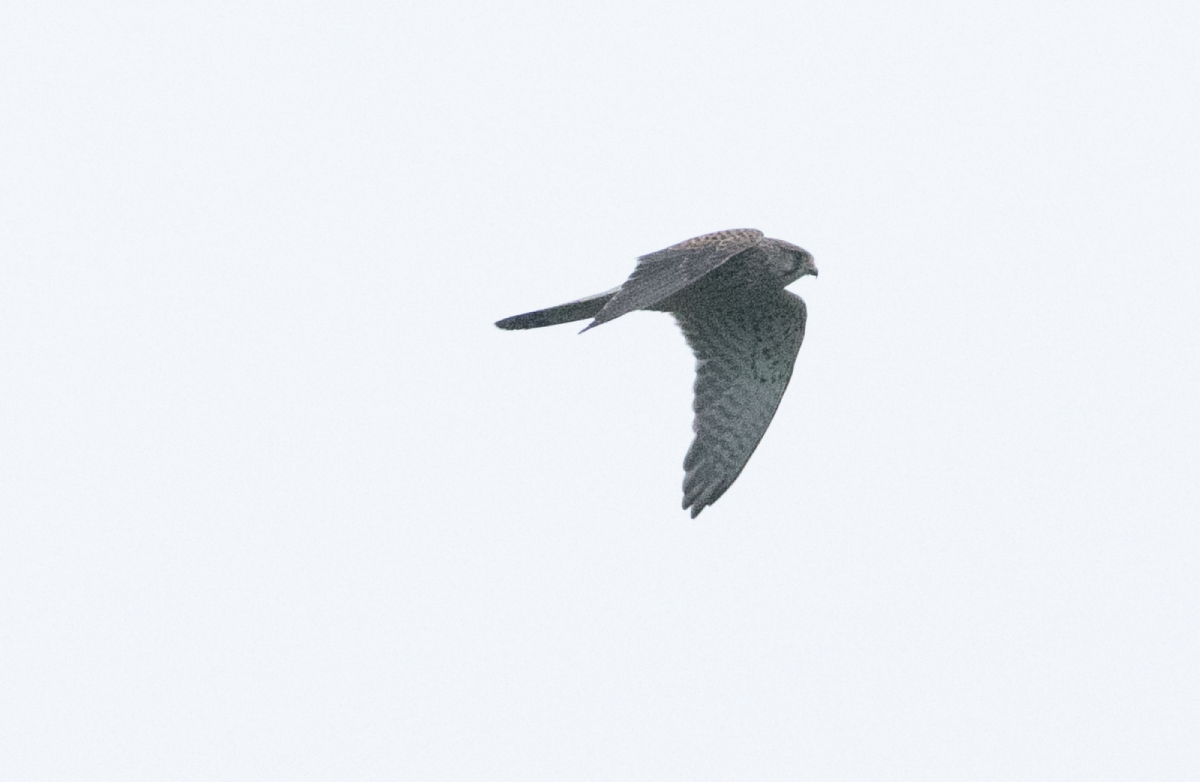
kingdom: Animalia
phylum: Chordata
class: Aves
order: Falconiformes
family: Falconidae
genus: Falco
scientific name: Falco tinnunculus
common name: Common kestrel
